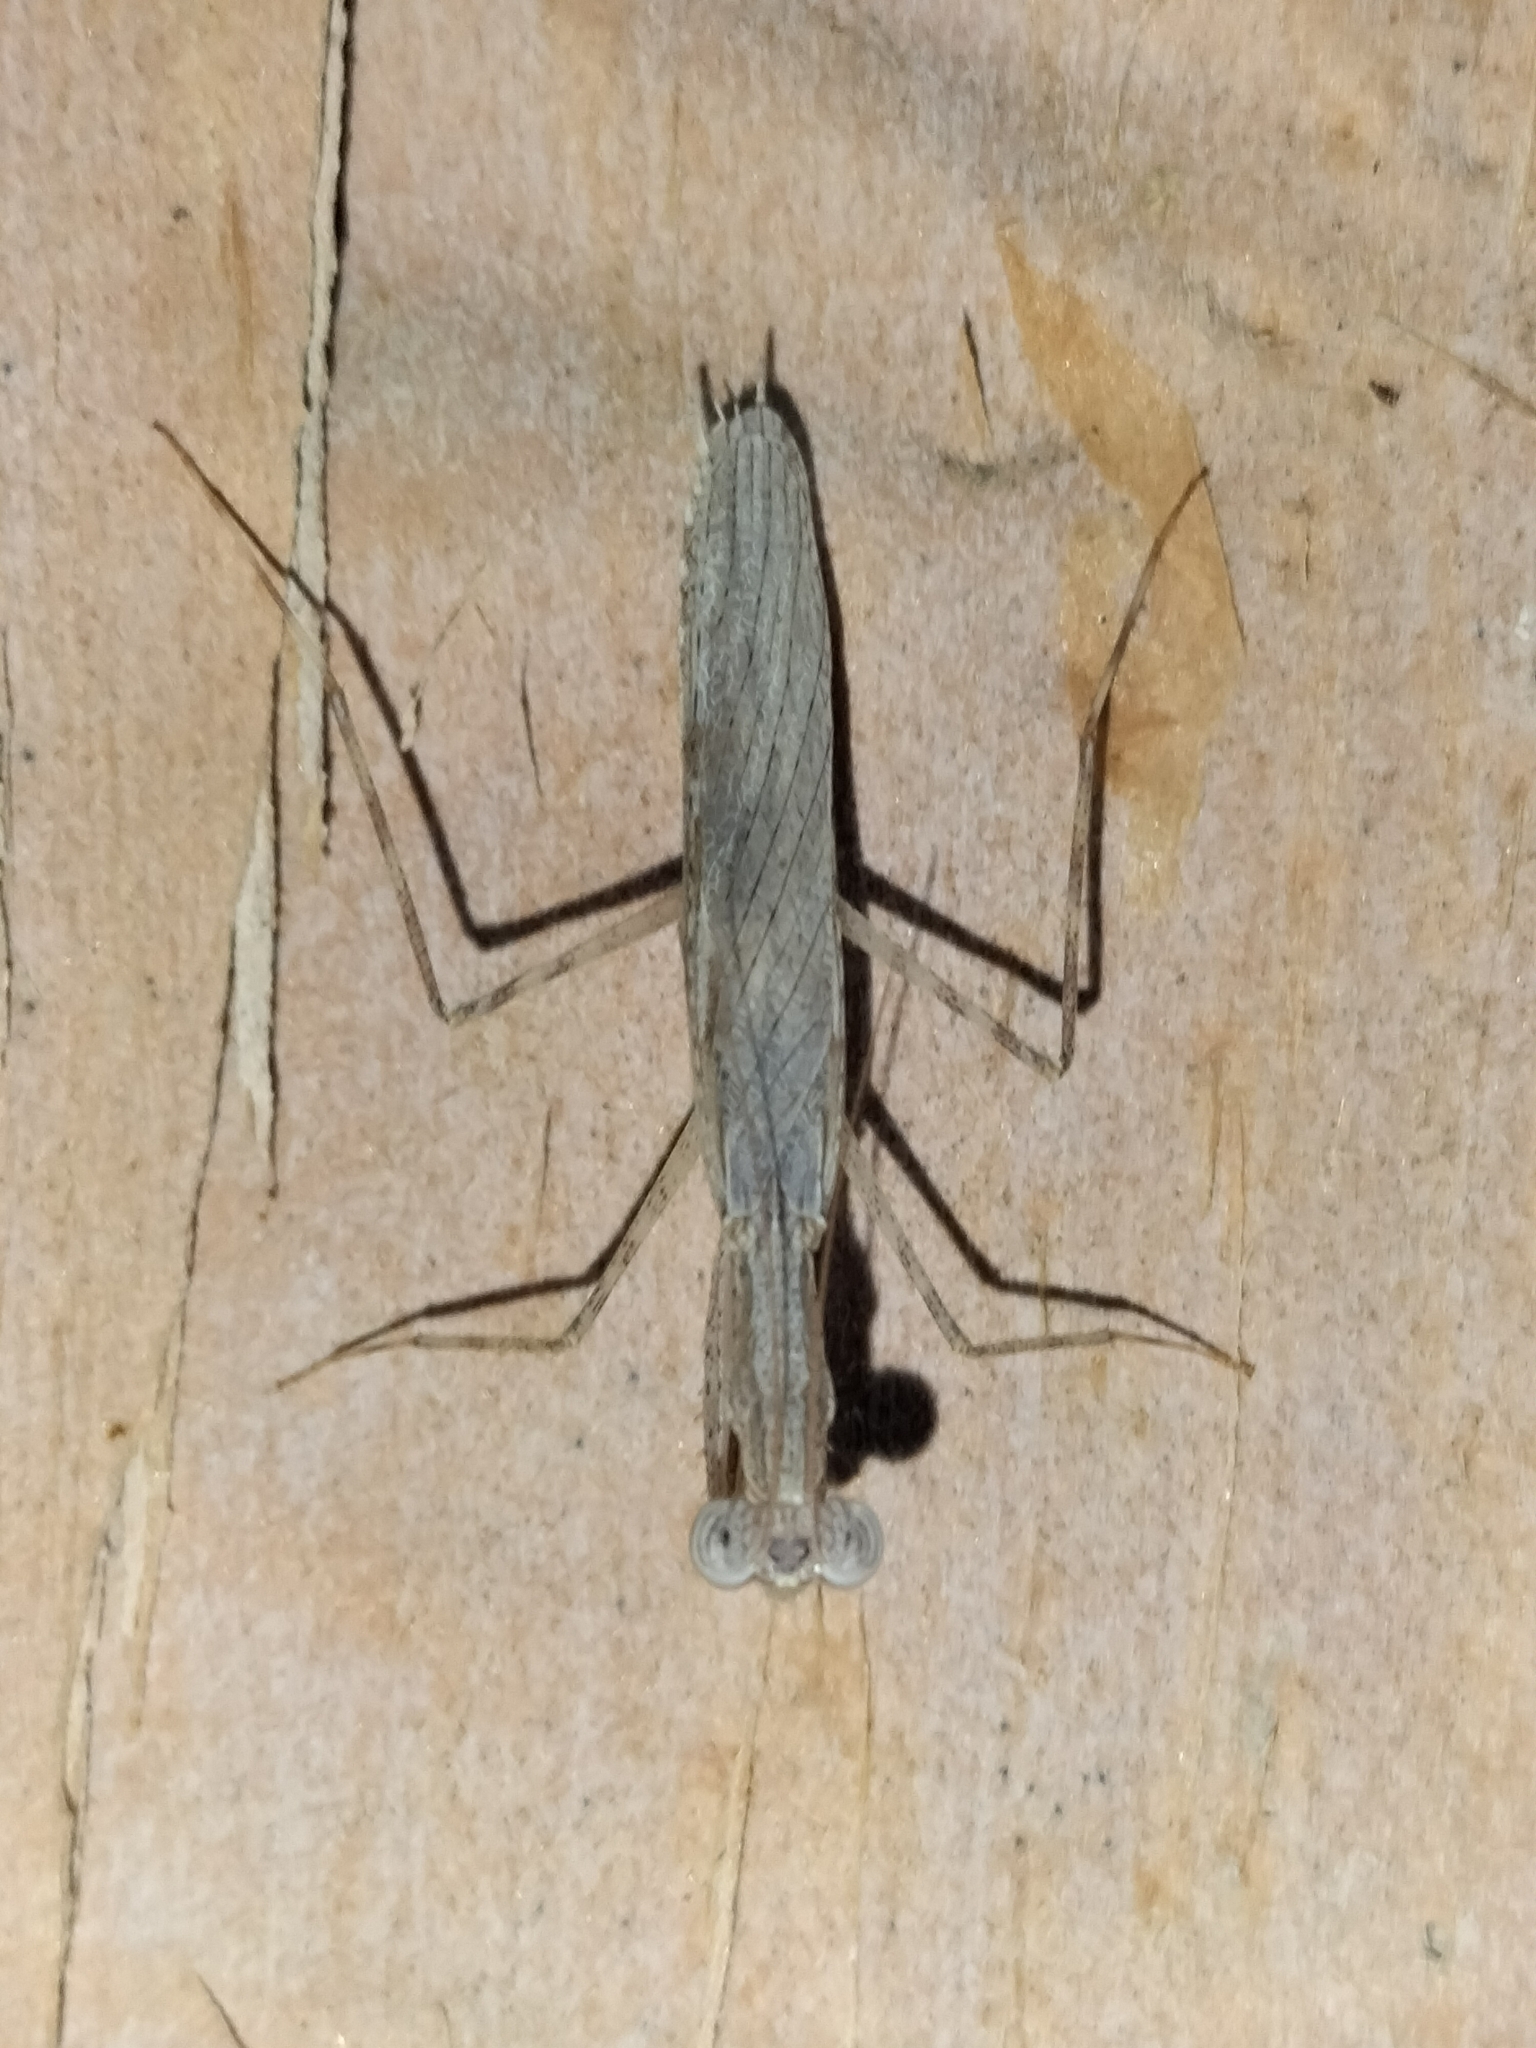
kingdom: Animalia
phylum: Arthropoda
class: Insecta
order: Mantodea
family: Nanomantidae
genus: Ima
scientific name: Ima fusca
